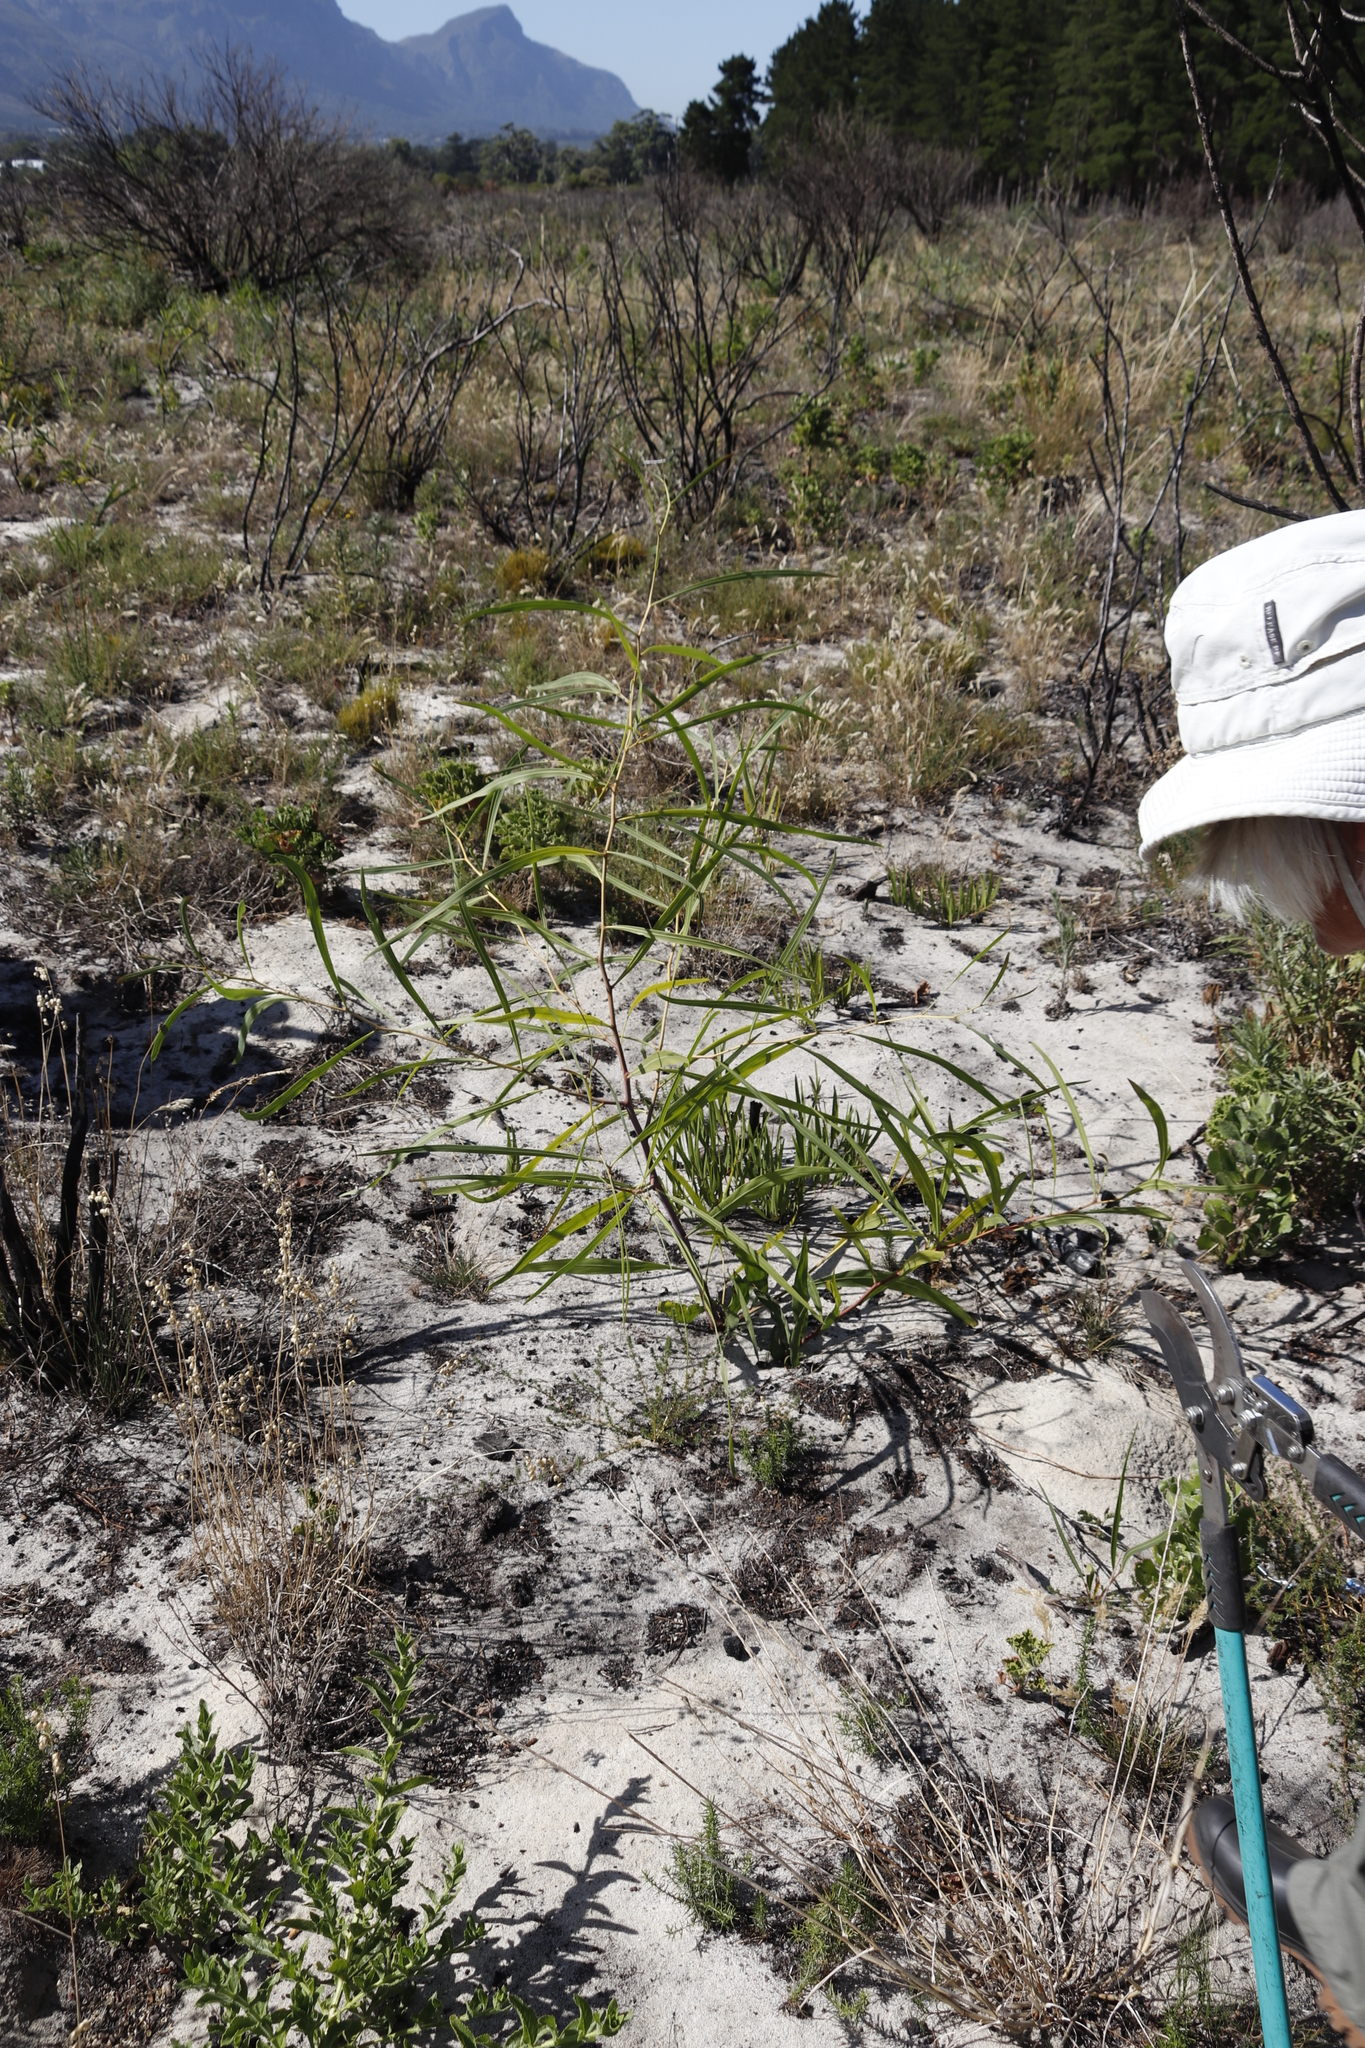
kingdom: Plantae
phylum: Tracheophyta
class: Magnoliopsida
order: Fabales
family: Fabaceae
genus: Acacia
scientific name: Acacia saligna
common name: Orange wattle
